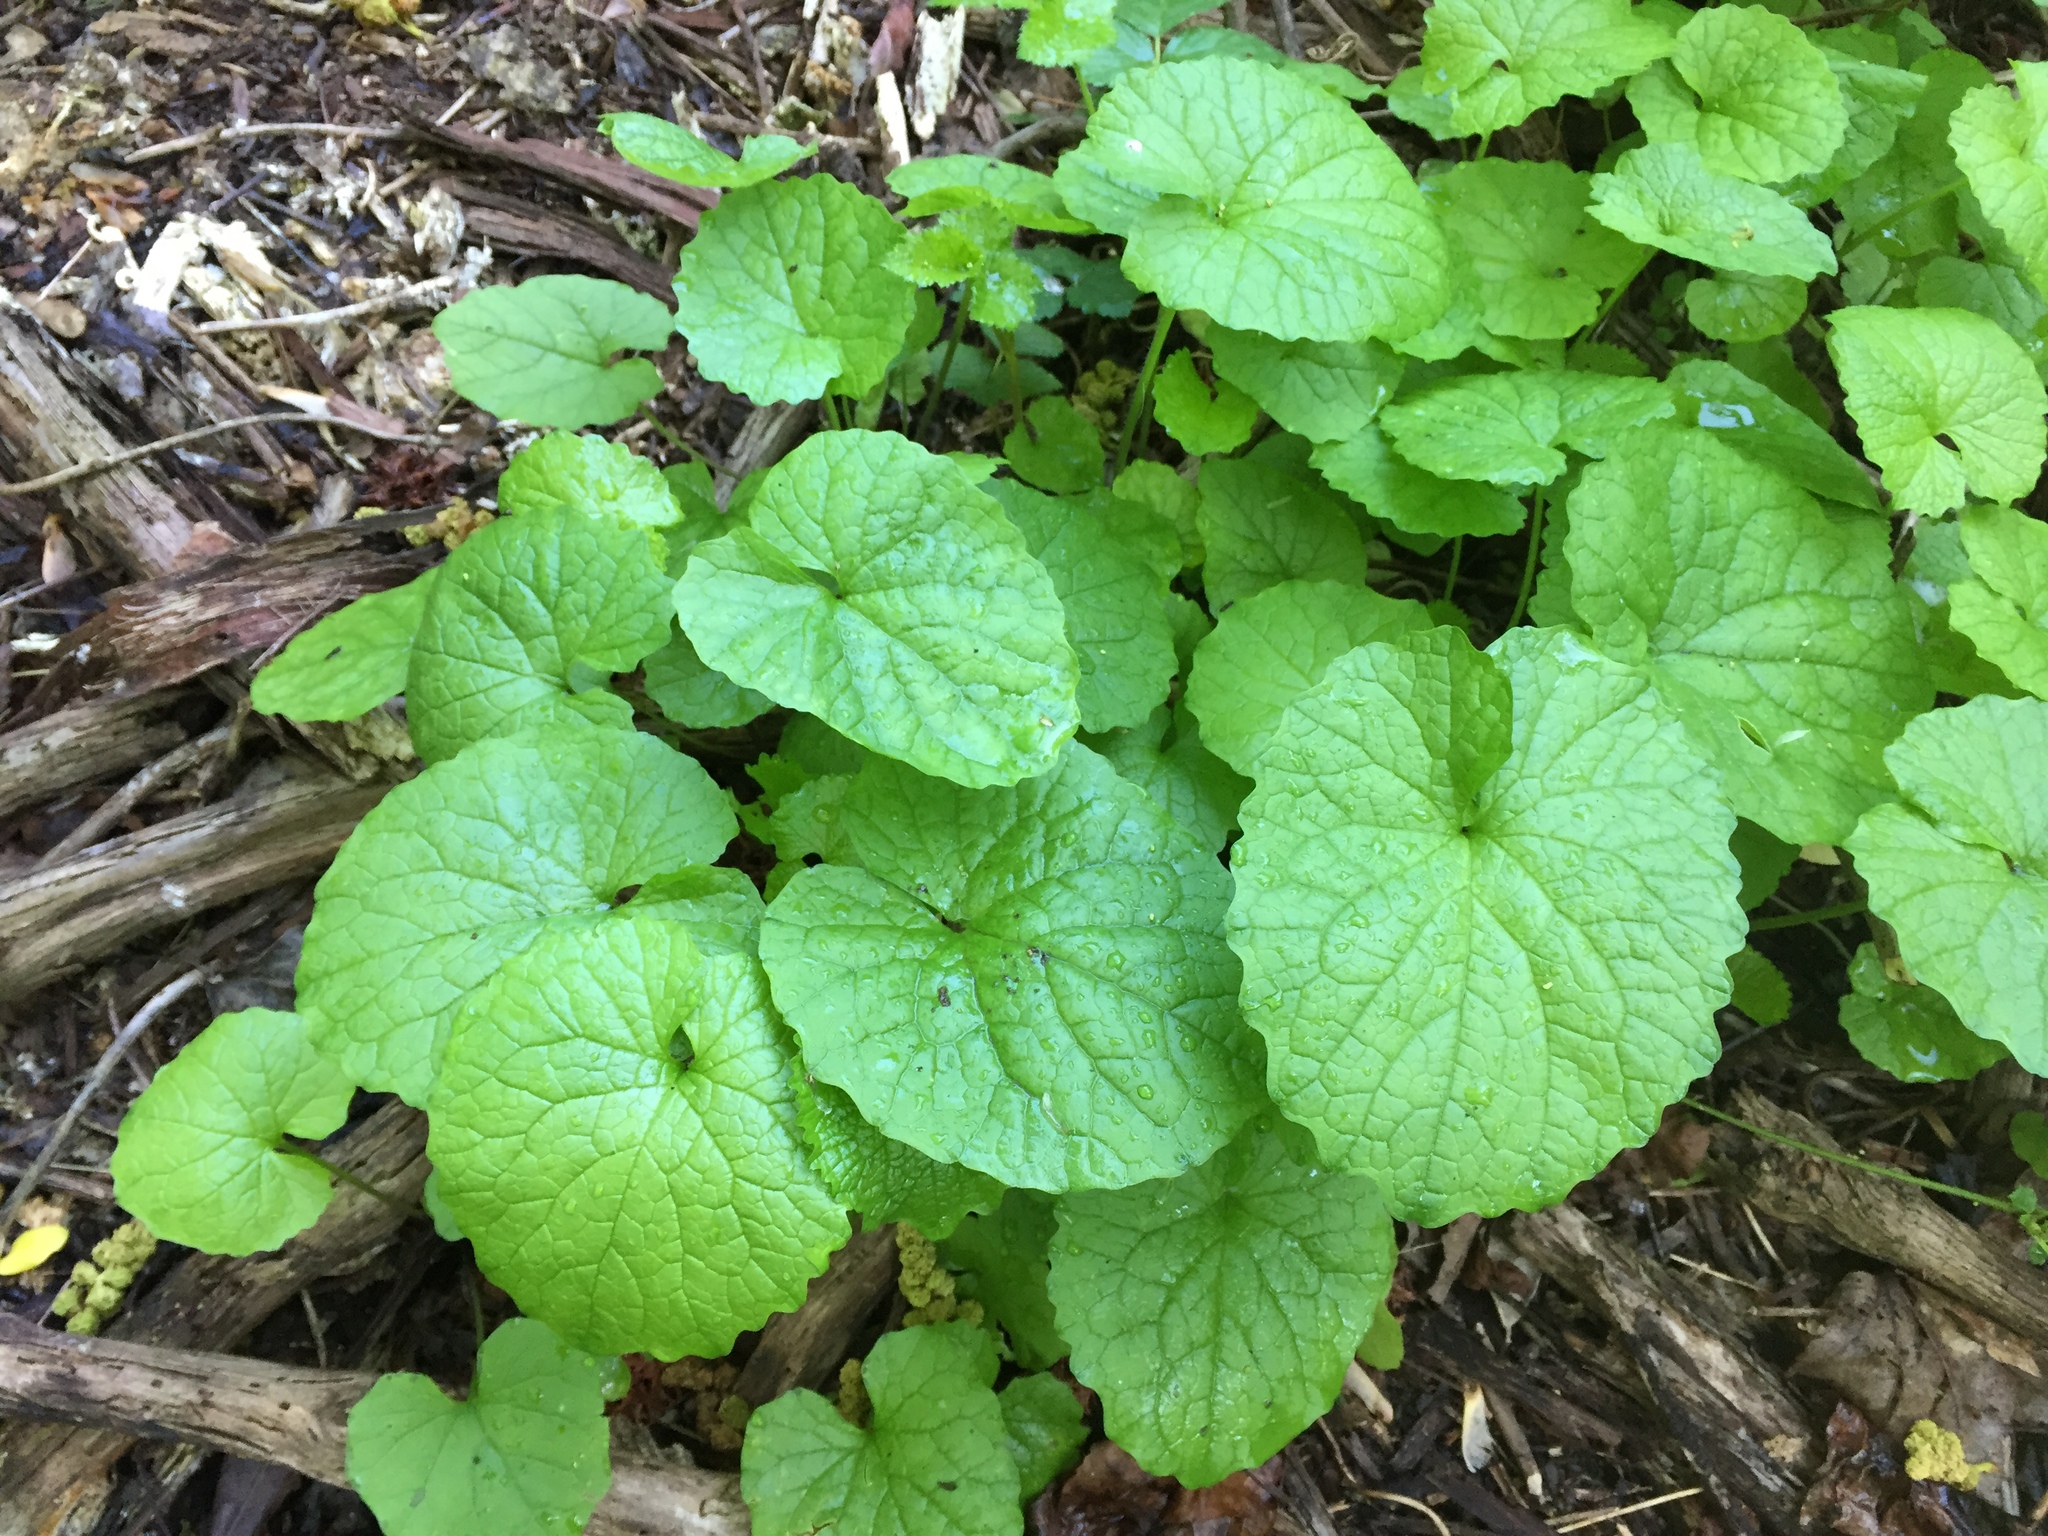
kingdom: Plantae
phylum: Tracheophyta
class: Magnoliopsida
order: Brassicales
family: Brassicaceae
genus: Alliaria
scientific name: Alliaria petiolata
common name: Garlic mustard
